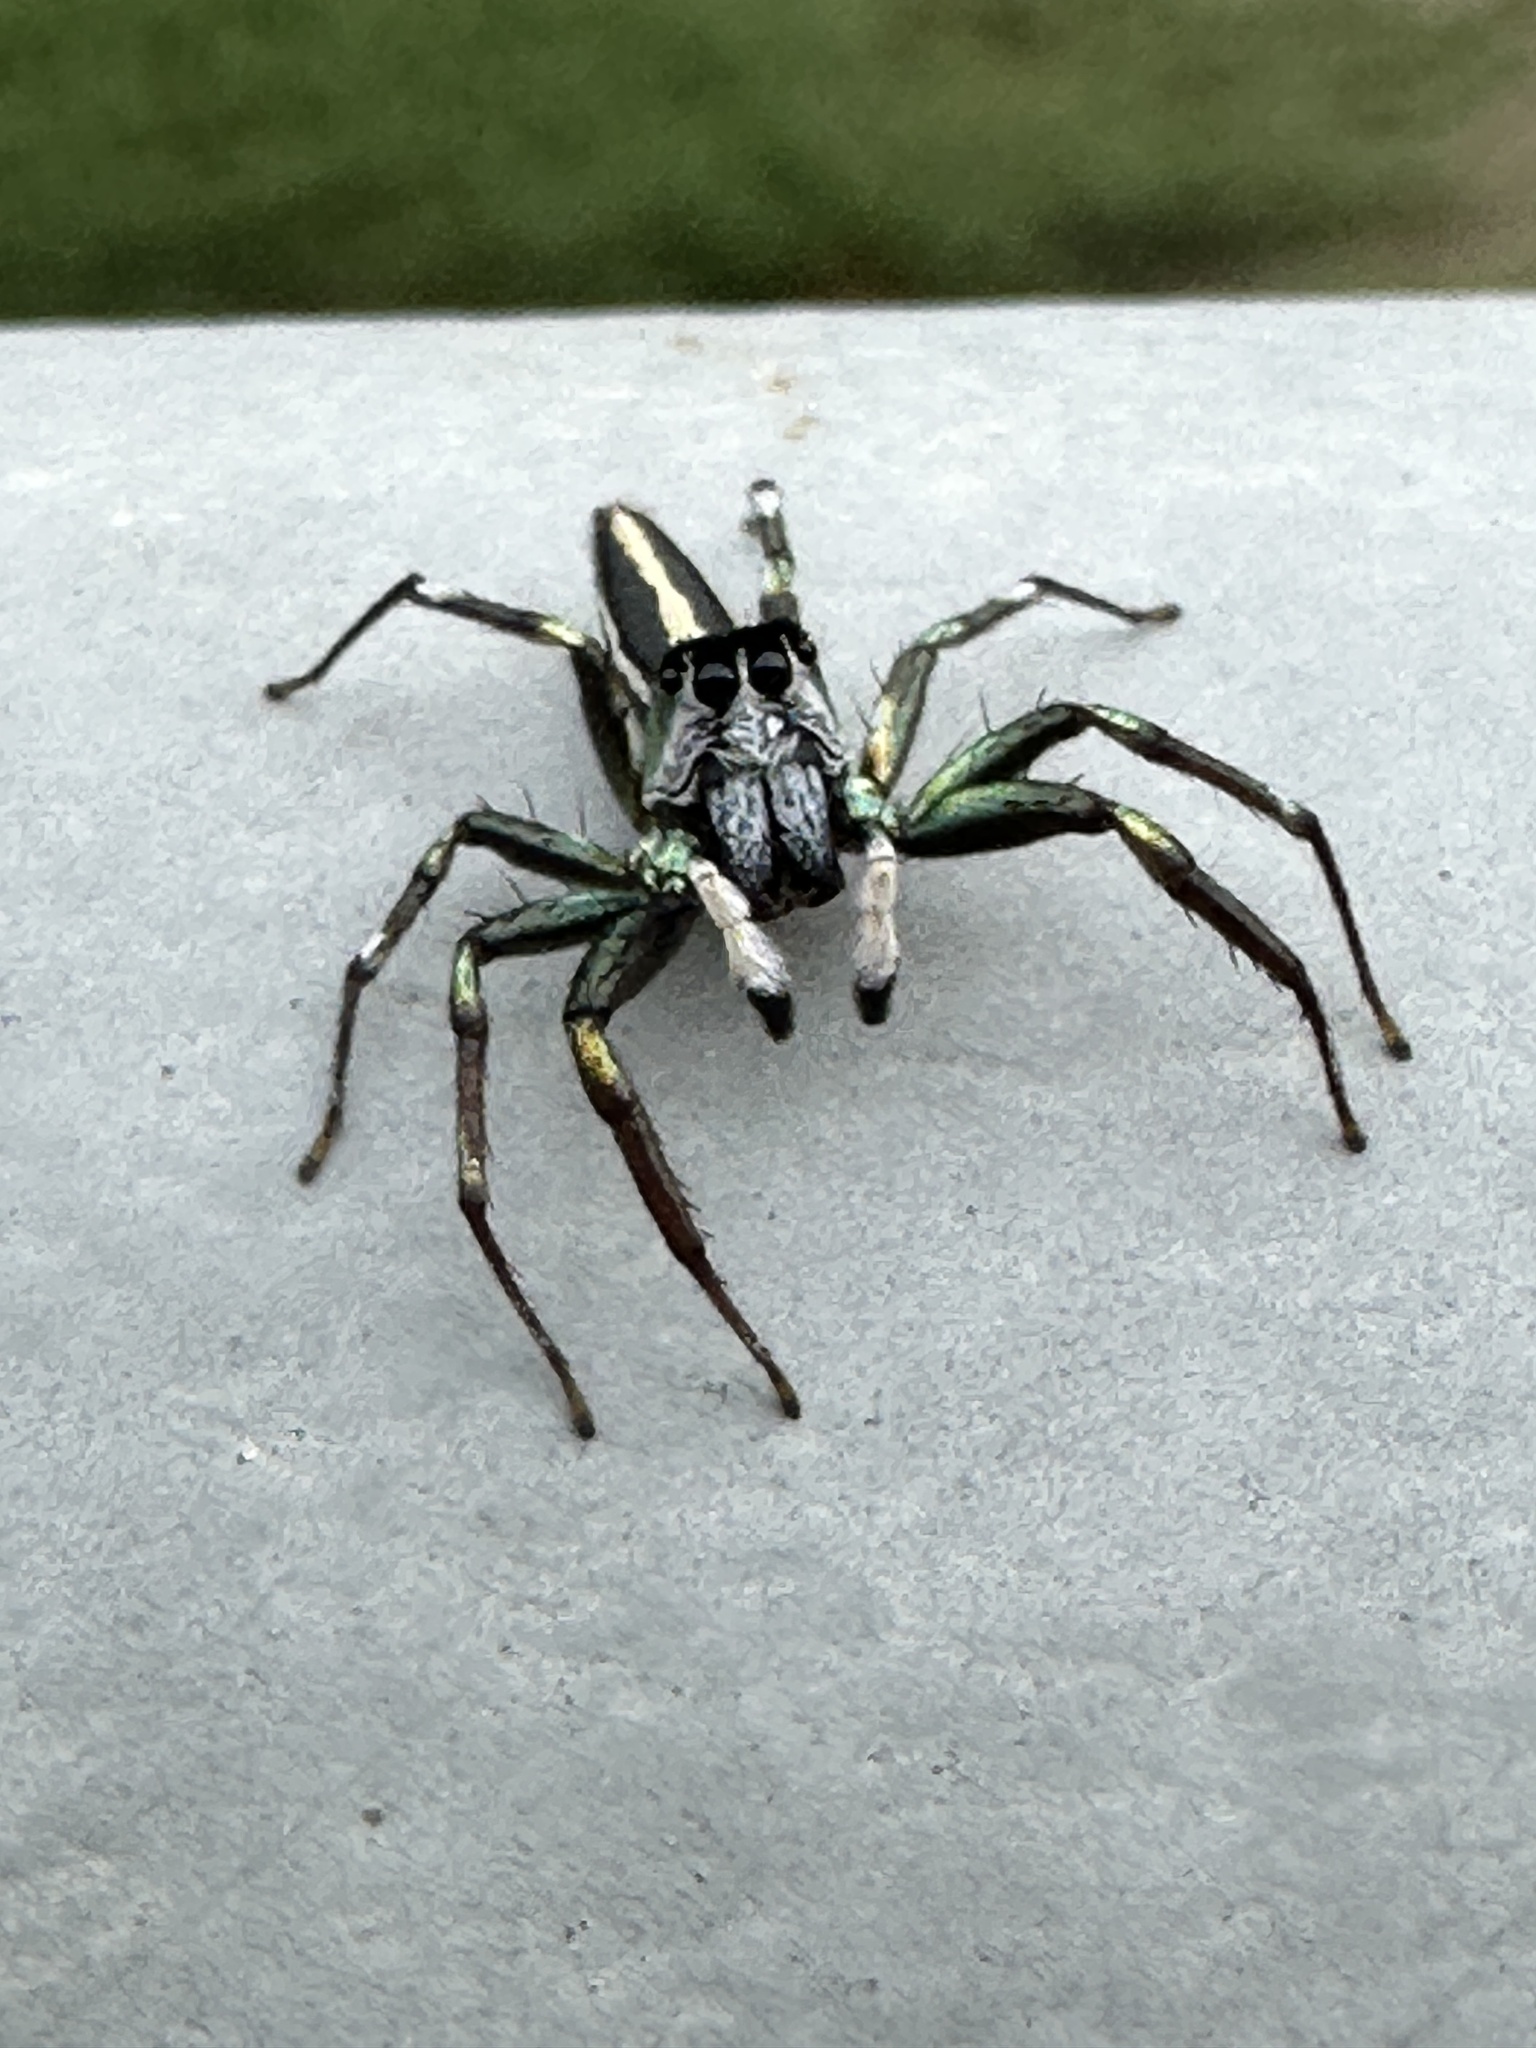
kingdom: Animalia
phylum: Arthropoda
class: Arachnida
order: Araneae
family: Salticidae
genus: Cosmophasis
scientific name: Cosmophasis thalassina
